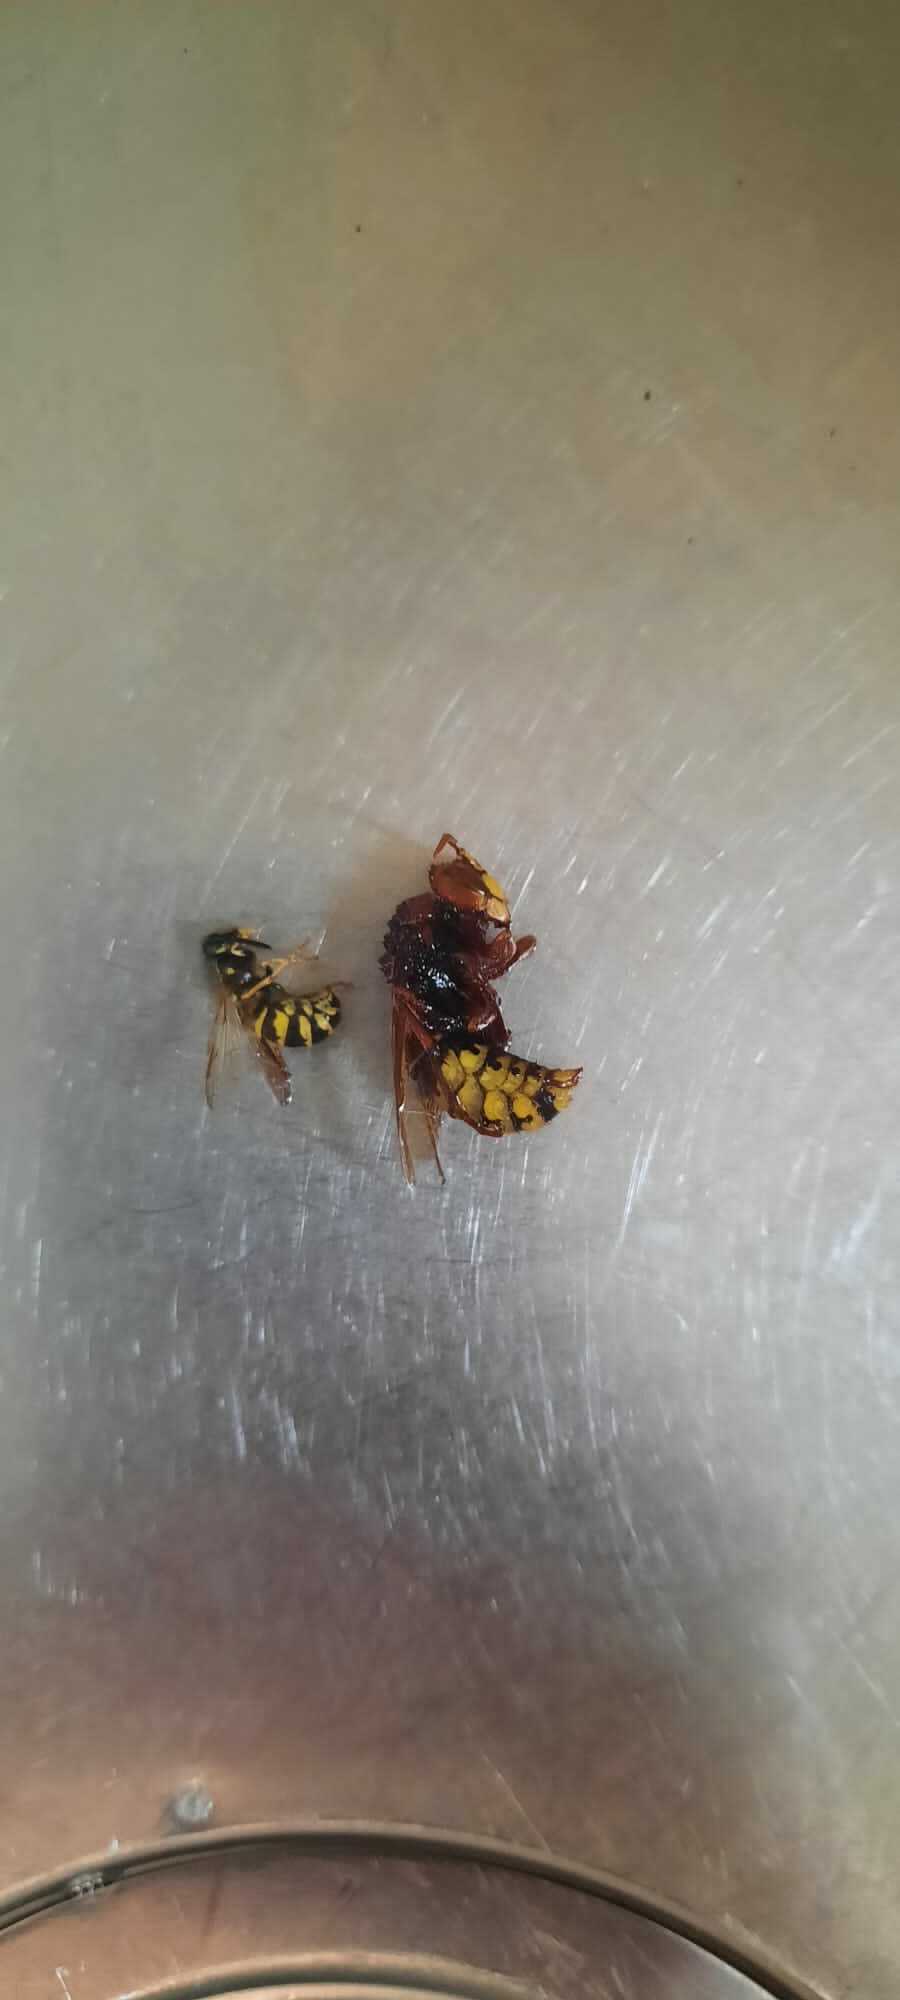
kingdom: Animalia
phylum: Arthropoda
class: Insecta
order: Hymenoptera
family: Vespidae
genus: Vespa
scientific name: Vespa crabro
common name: Hornet
